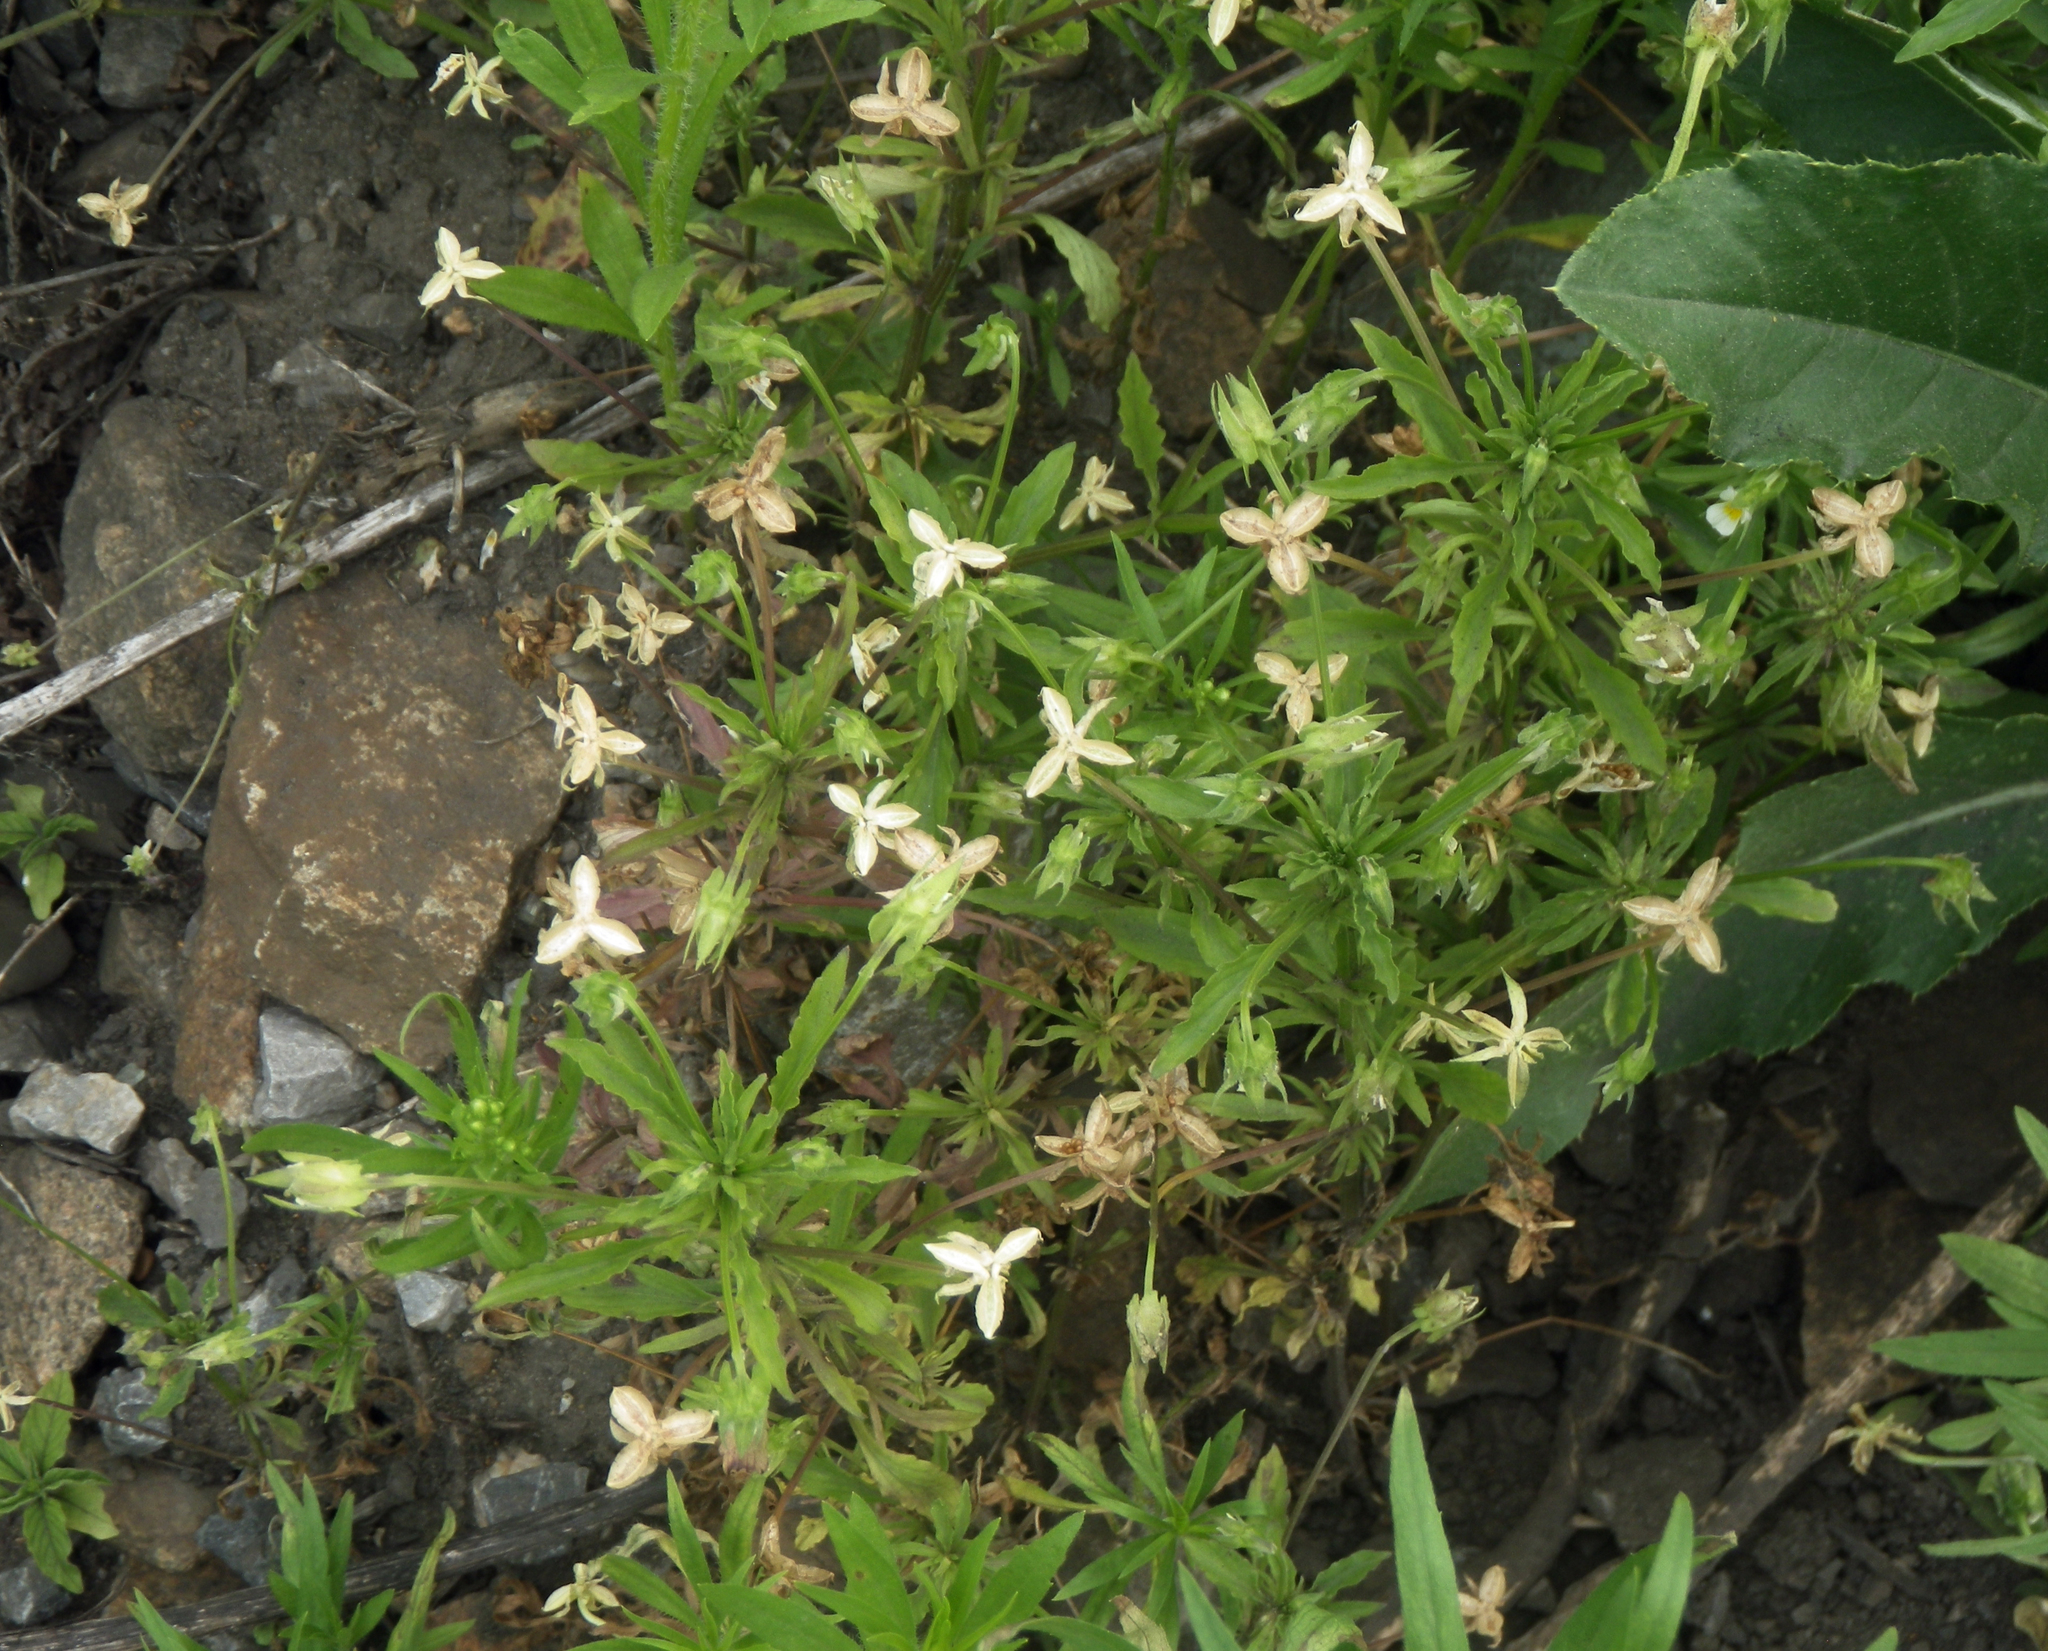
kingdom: Plantae
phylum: Tracheophyta
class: Magnoliopsida
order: Malpighiales
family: Violaceae
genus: Viola
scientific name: Viola arvensis
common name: Field pansy
